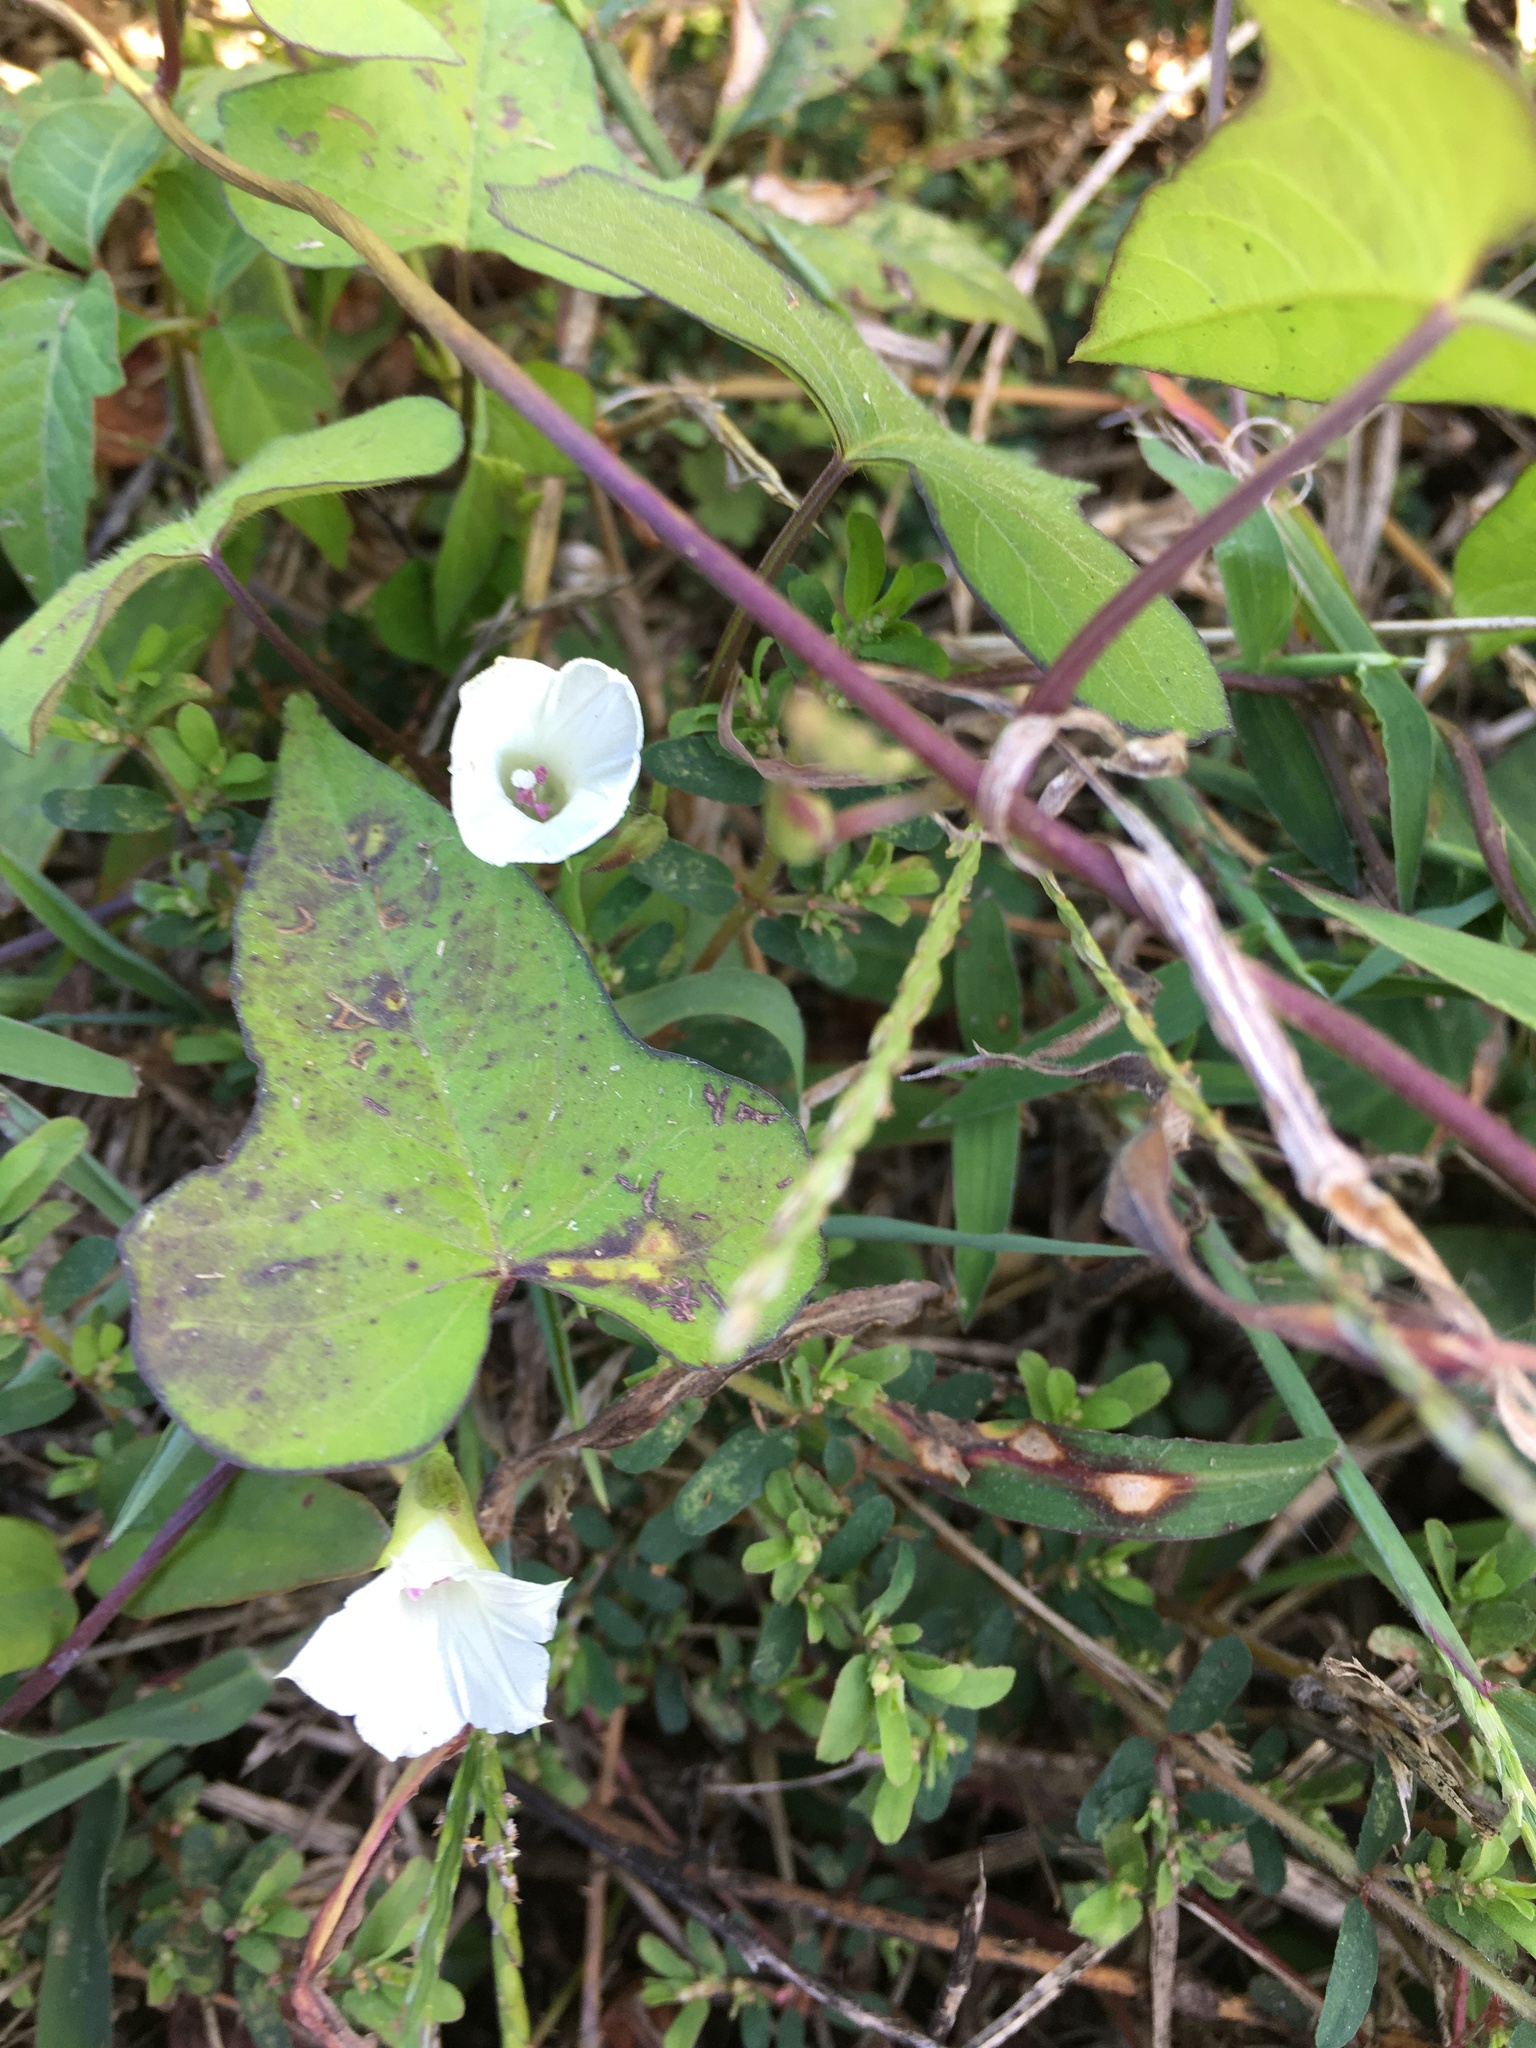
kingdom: Plantae
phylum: Tracheophyta
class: Magnoliopsida
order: Solanales
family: Convolvulaceae
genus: Ipomoea
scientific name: Ipomoea lacunosa
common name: White morning-glory
